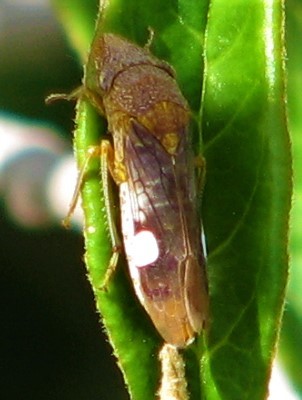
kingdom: Animalia
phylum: Arthropoda
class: Insecta
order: Hemiptera
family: Cicadellidae
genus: Homalodisca
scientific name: Homalodisca vitripennis
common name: Glassy-winged sharpshooter
